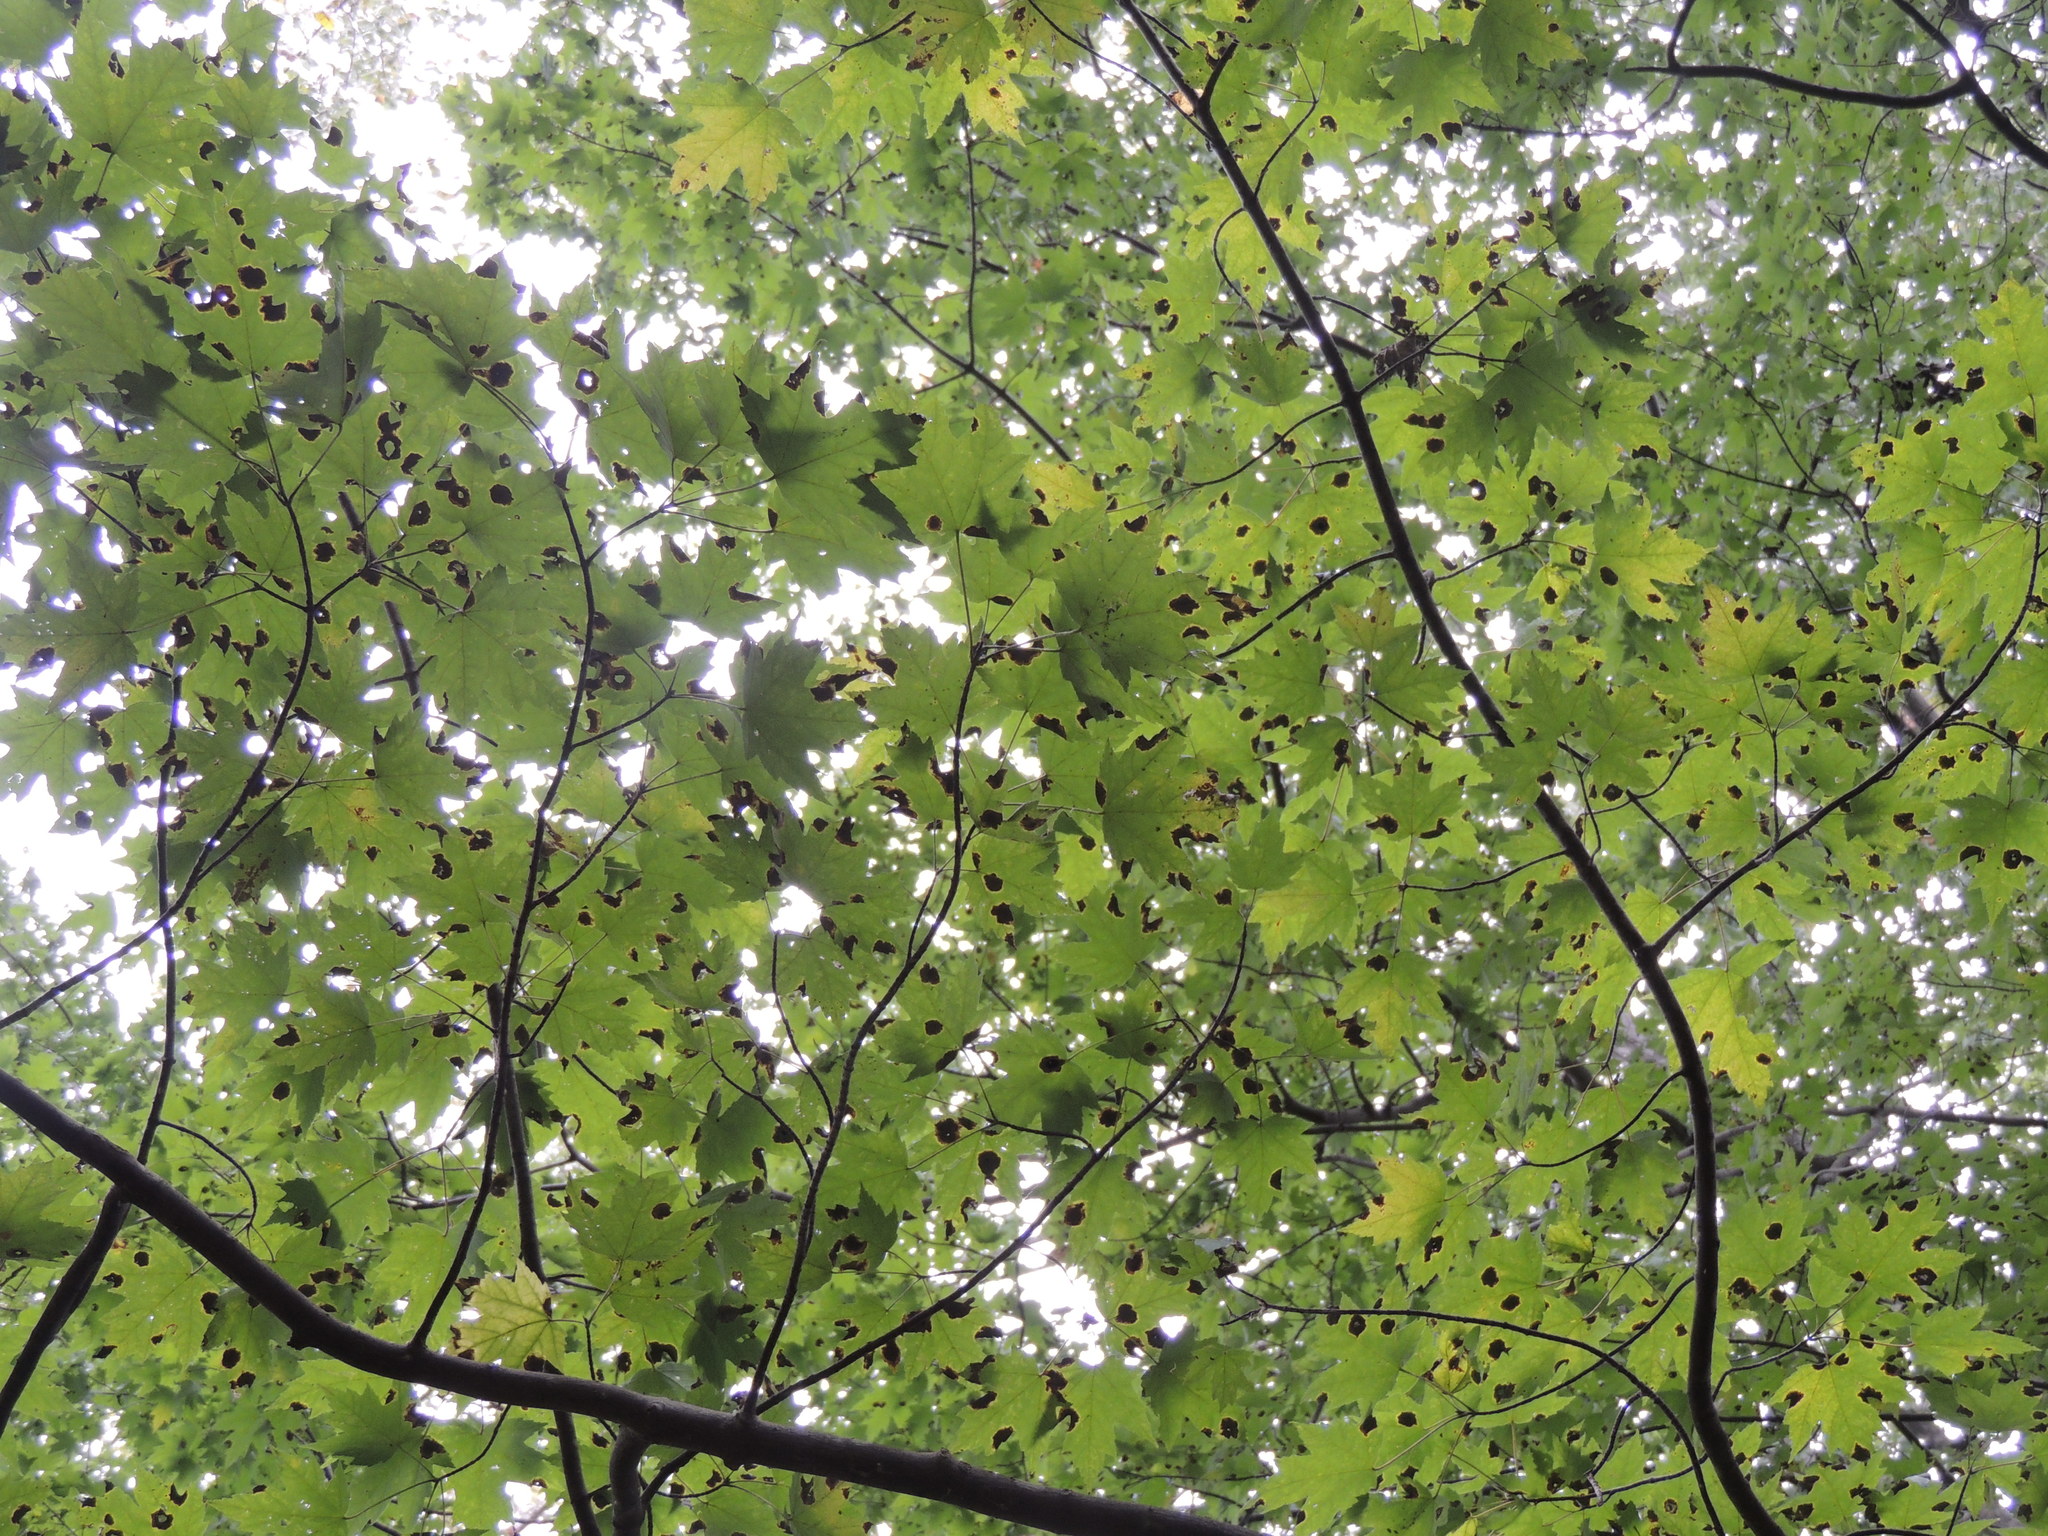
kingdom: Plantae
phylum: Tracheophyta
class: Magnoliopsida
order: Sapindales
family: Sapindaceae
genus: Acer
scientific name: Acer rubrum
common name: Red maple
